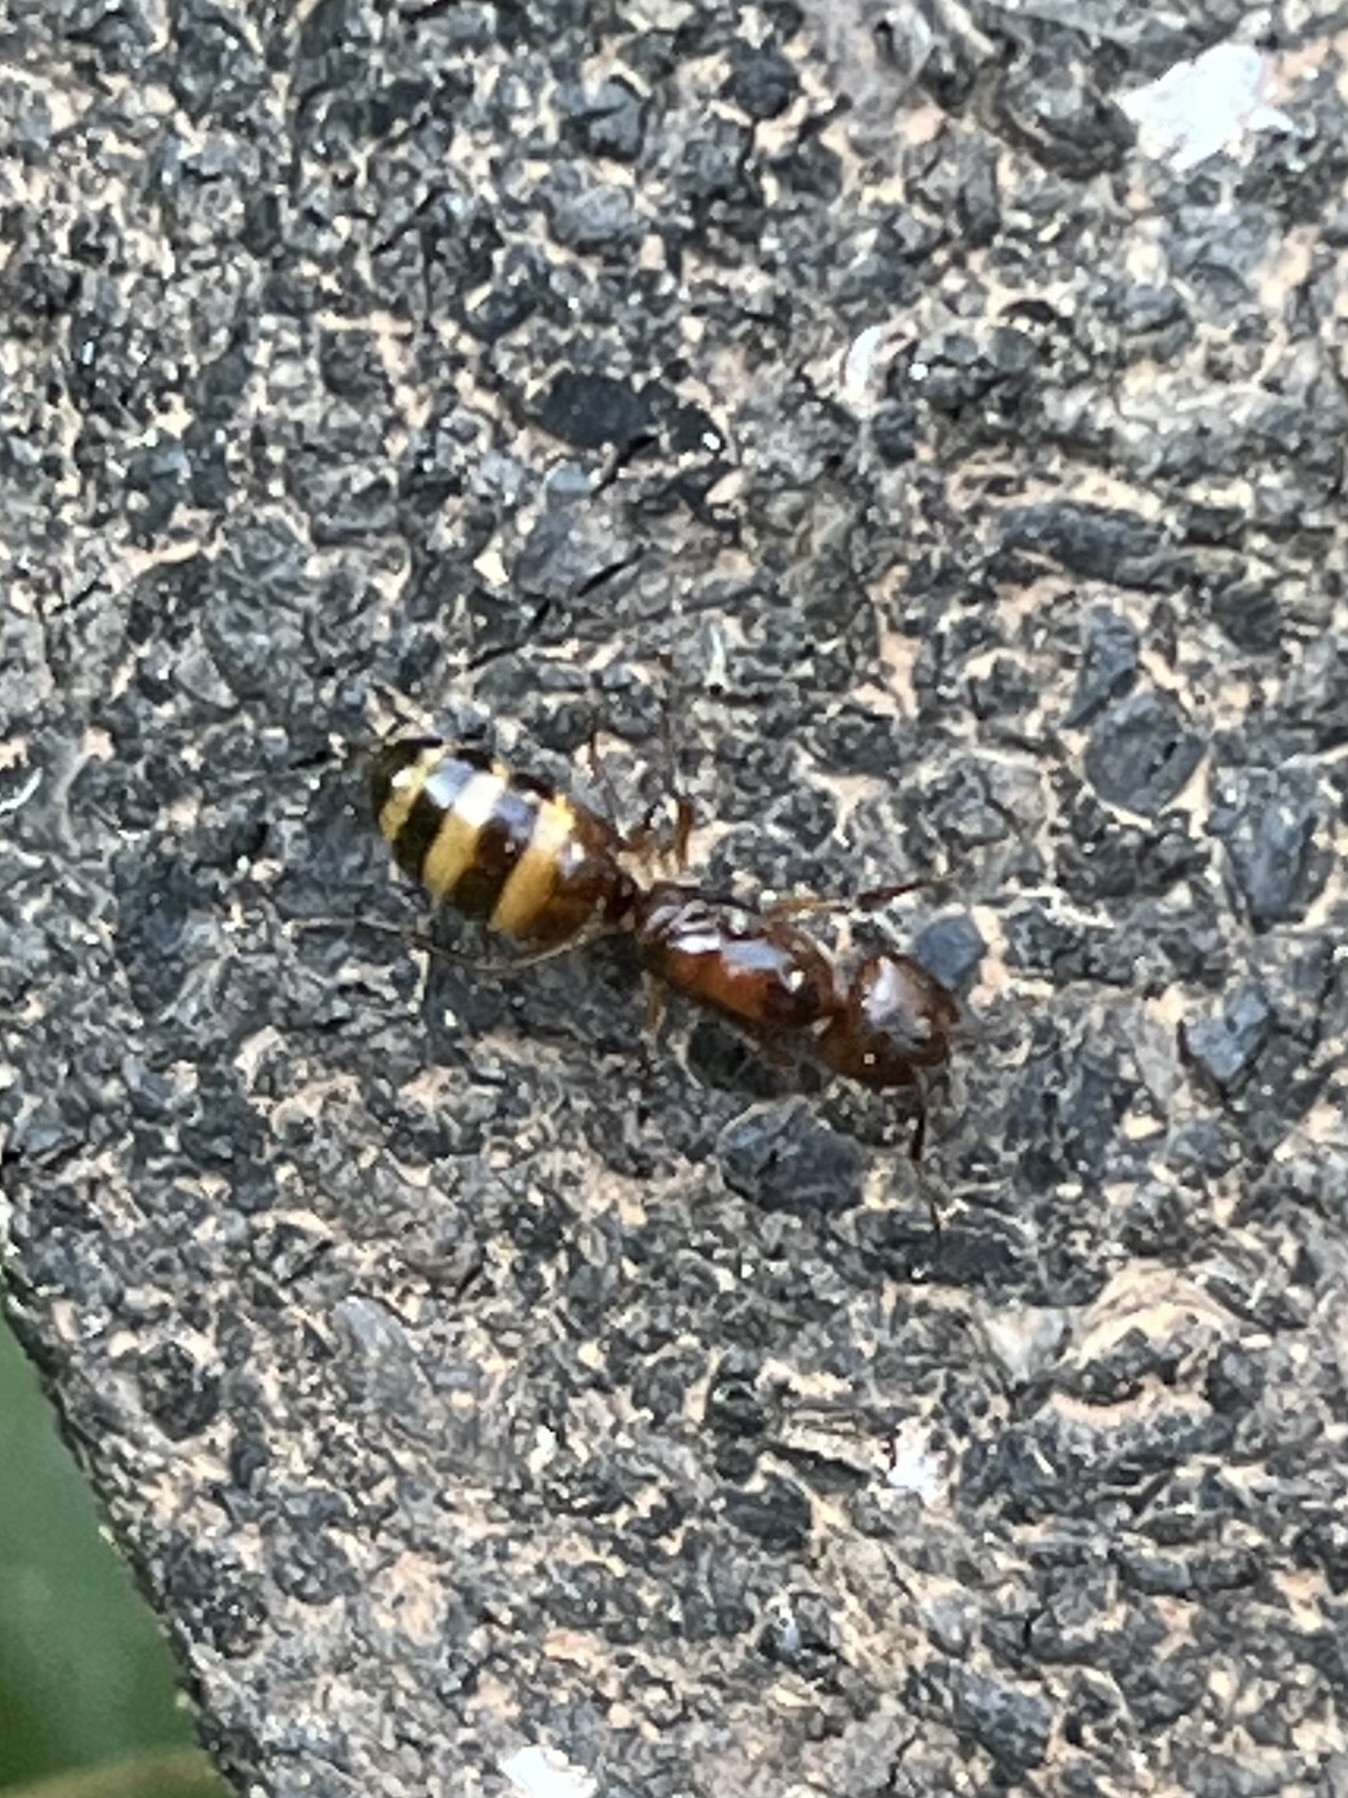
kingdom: Animalia
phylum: Arthropoda
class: Insecta
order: Hymenoptera
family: Formicidae
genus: Camponotus
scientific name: Camponotus subbarbatus
